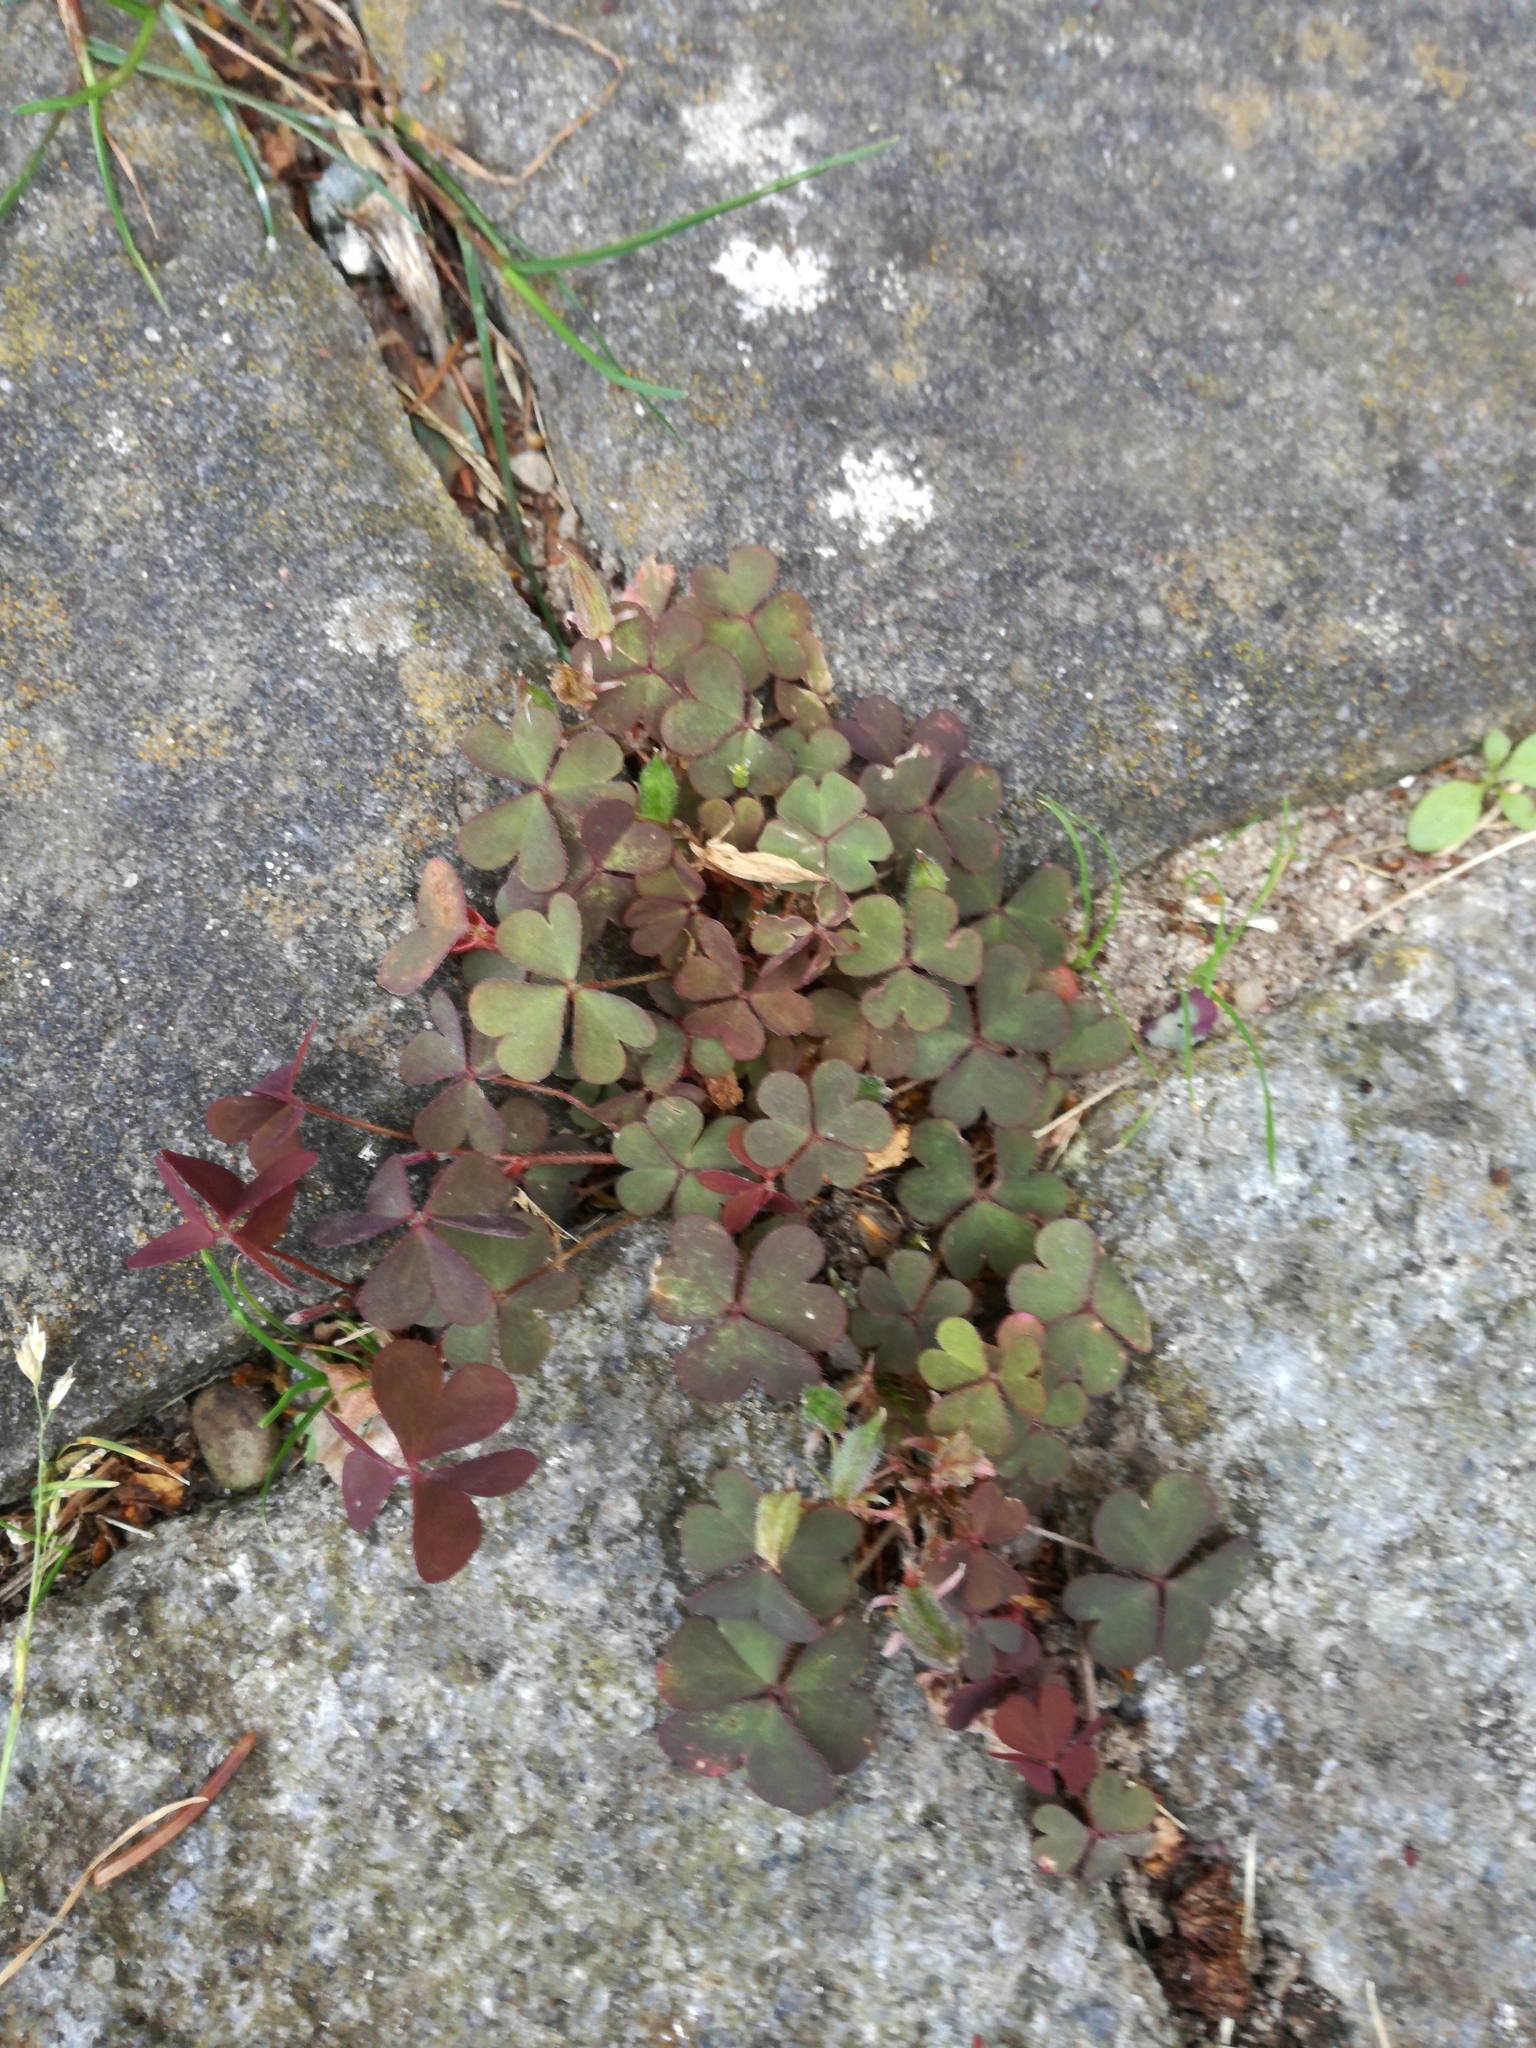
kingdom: Plantae
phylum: Tracheophyta
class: Magnoliopsida
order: Oxalidales
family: Oxalidaceae
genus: Oxalis
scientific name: Oxalis corniculata
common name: Procumbent yellow-sorrel
